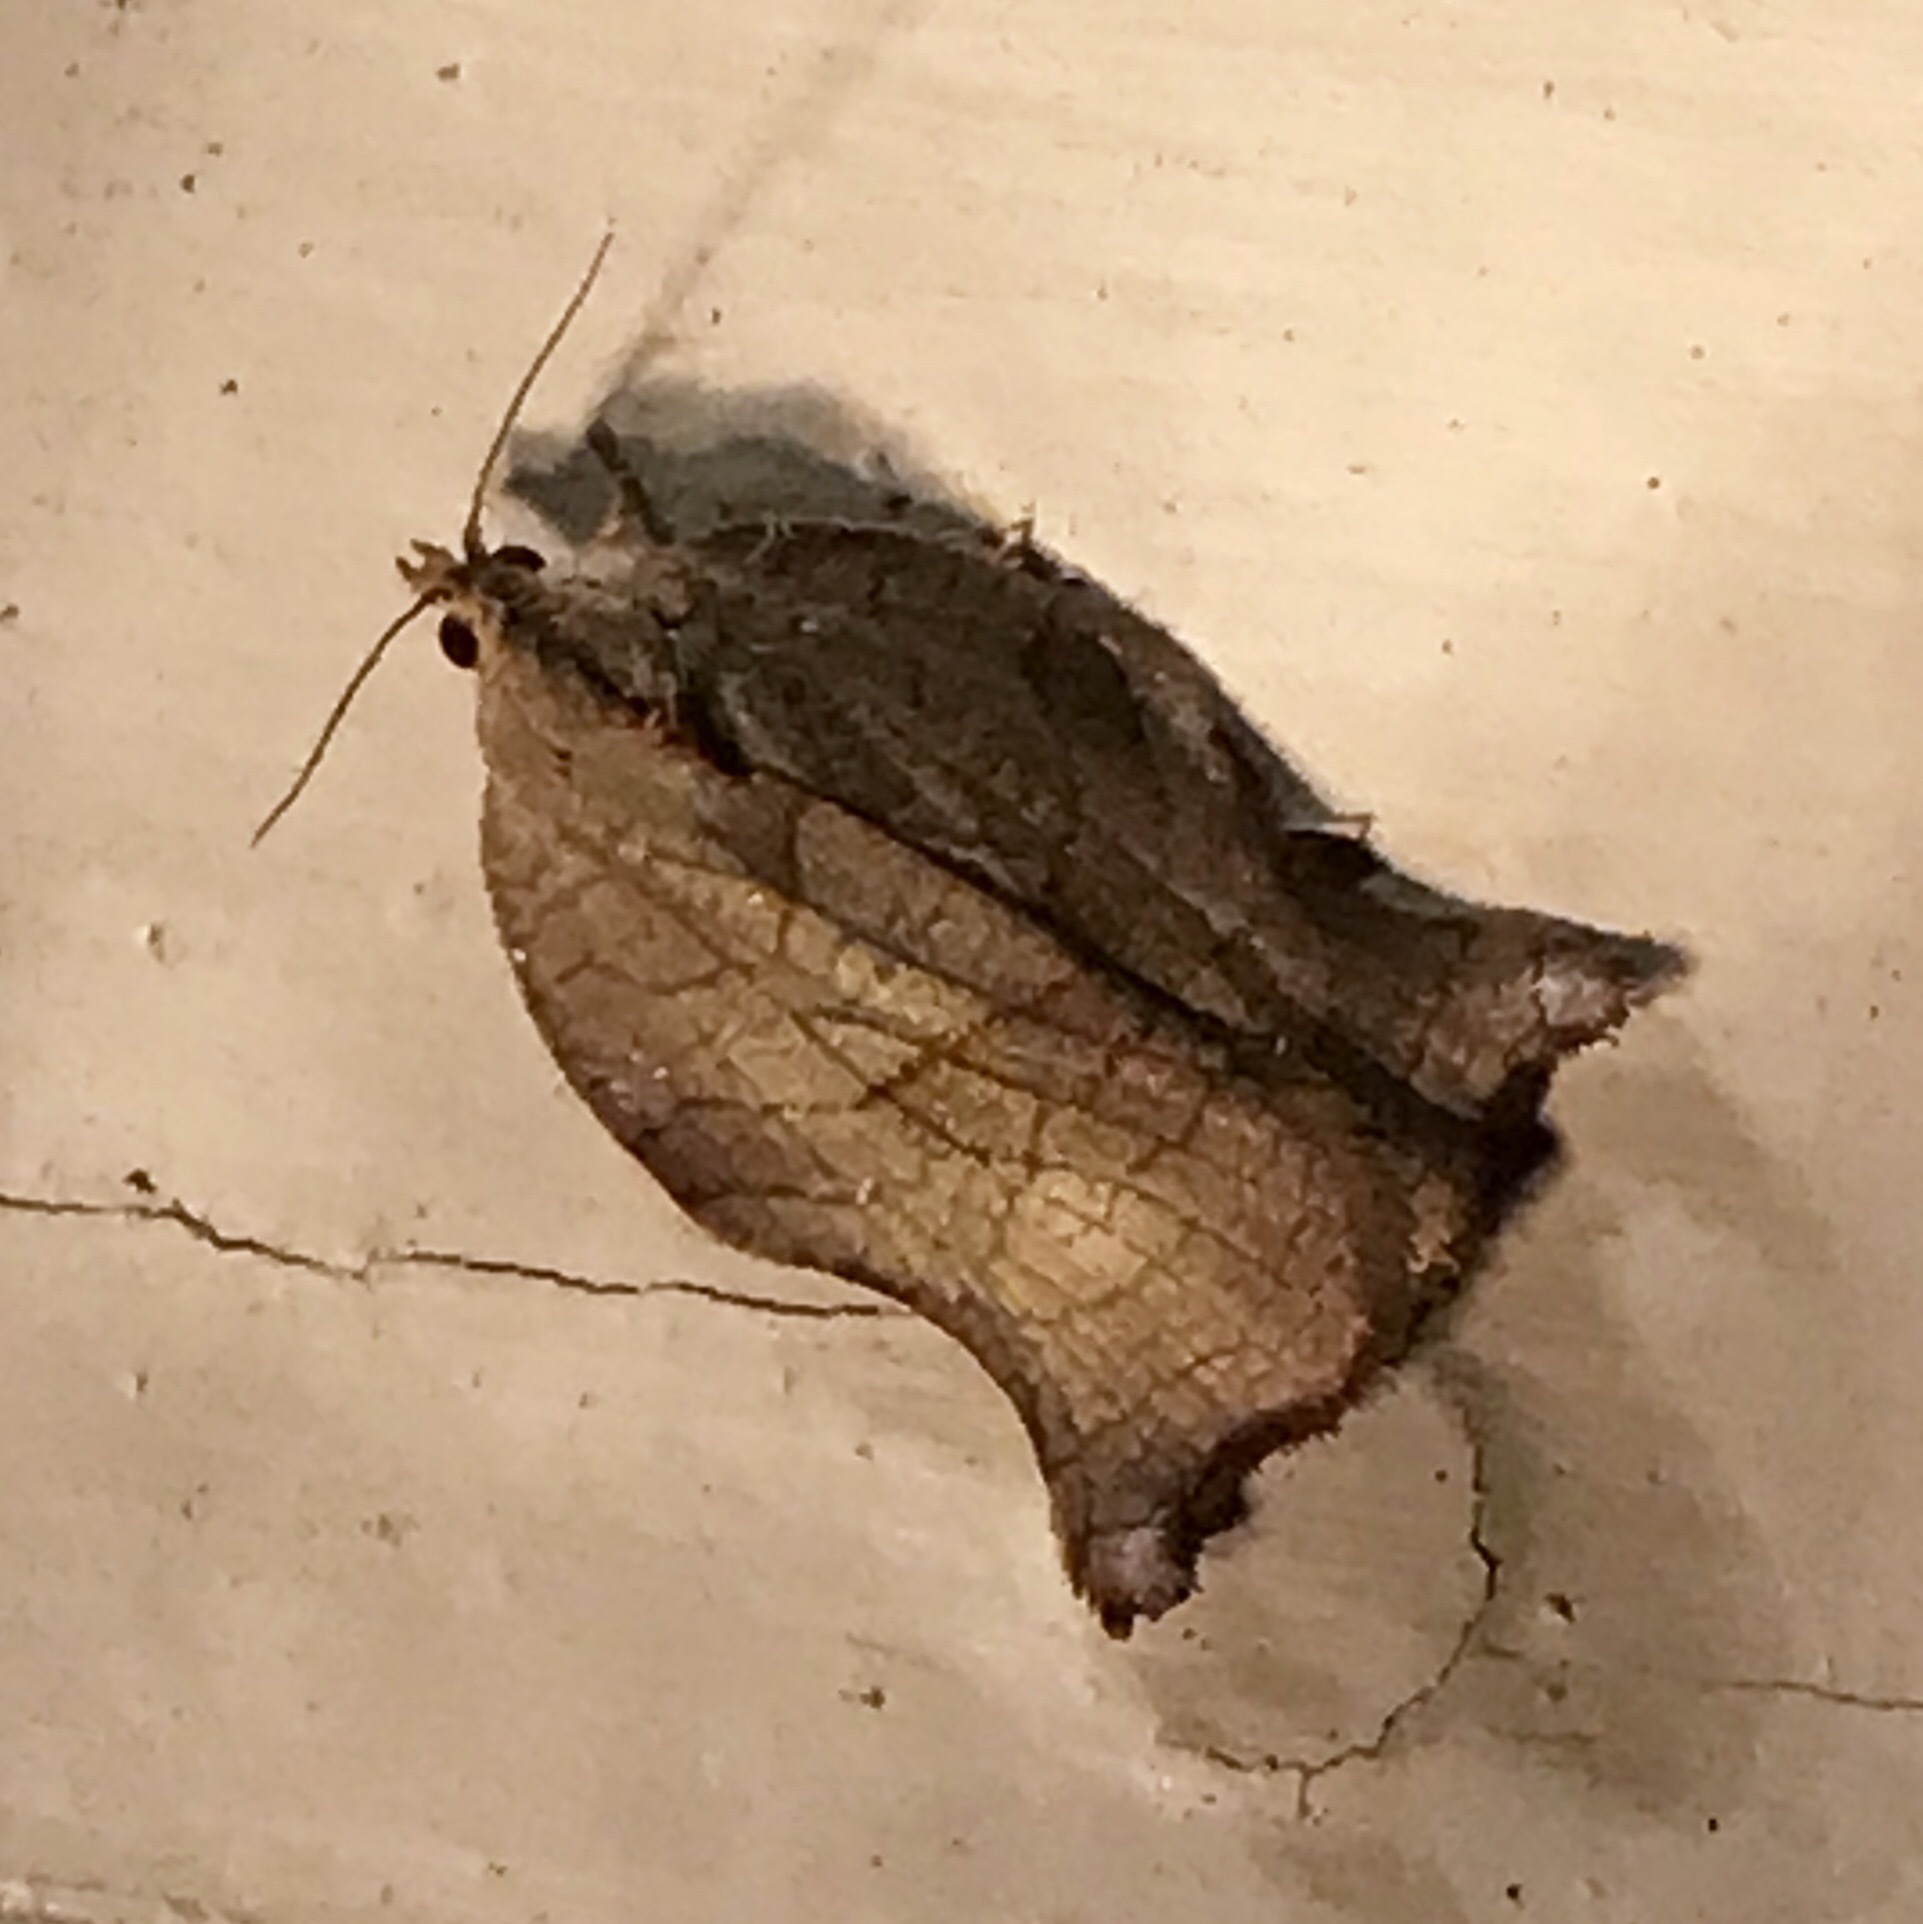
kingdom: Animalia
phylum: Arthropoda
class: Insecta
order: Lepidoptera
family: Tortricidae
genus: Archips
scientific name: Archips purpurana
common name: Omnivorous leafroller
